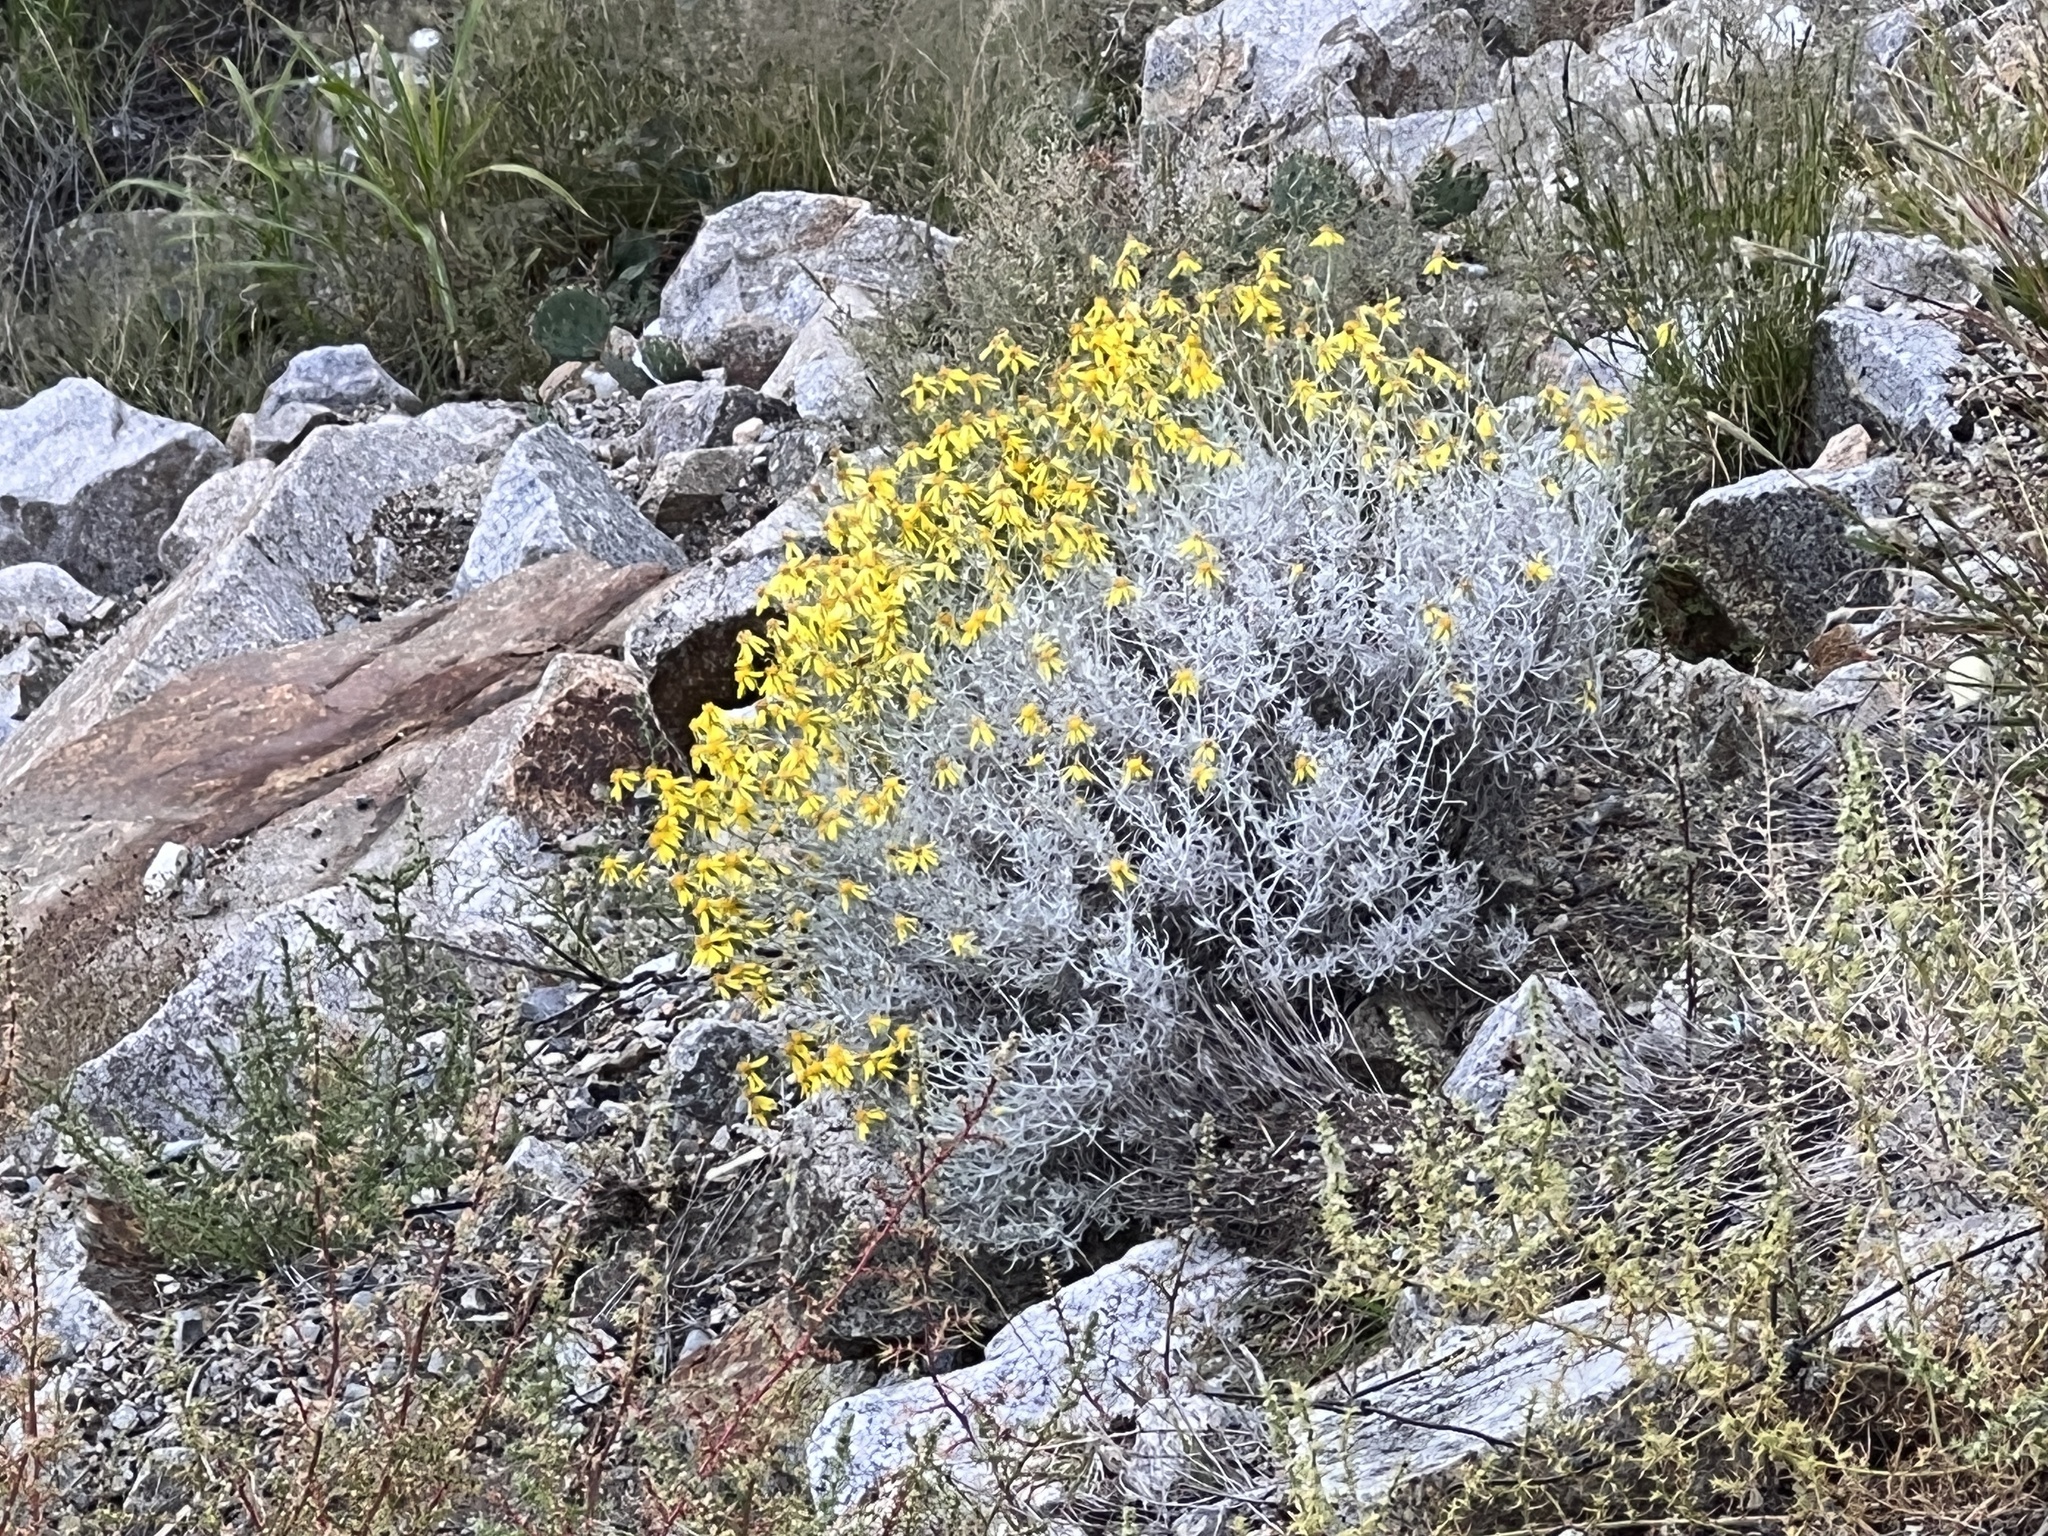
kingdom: Plantae
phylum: Tracheophyta
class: Magnoliopsida
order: Asterales
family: Asteraceae
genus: Senecio
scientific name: Senecio flaccidus
